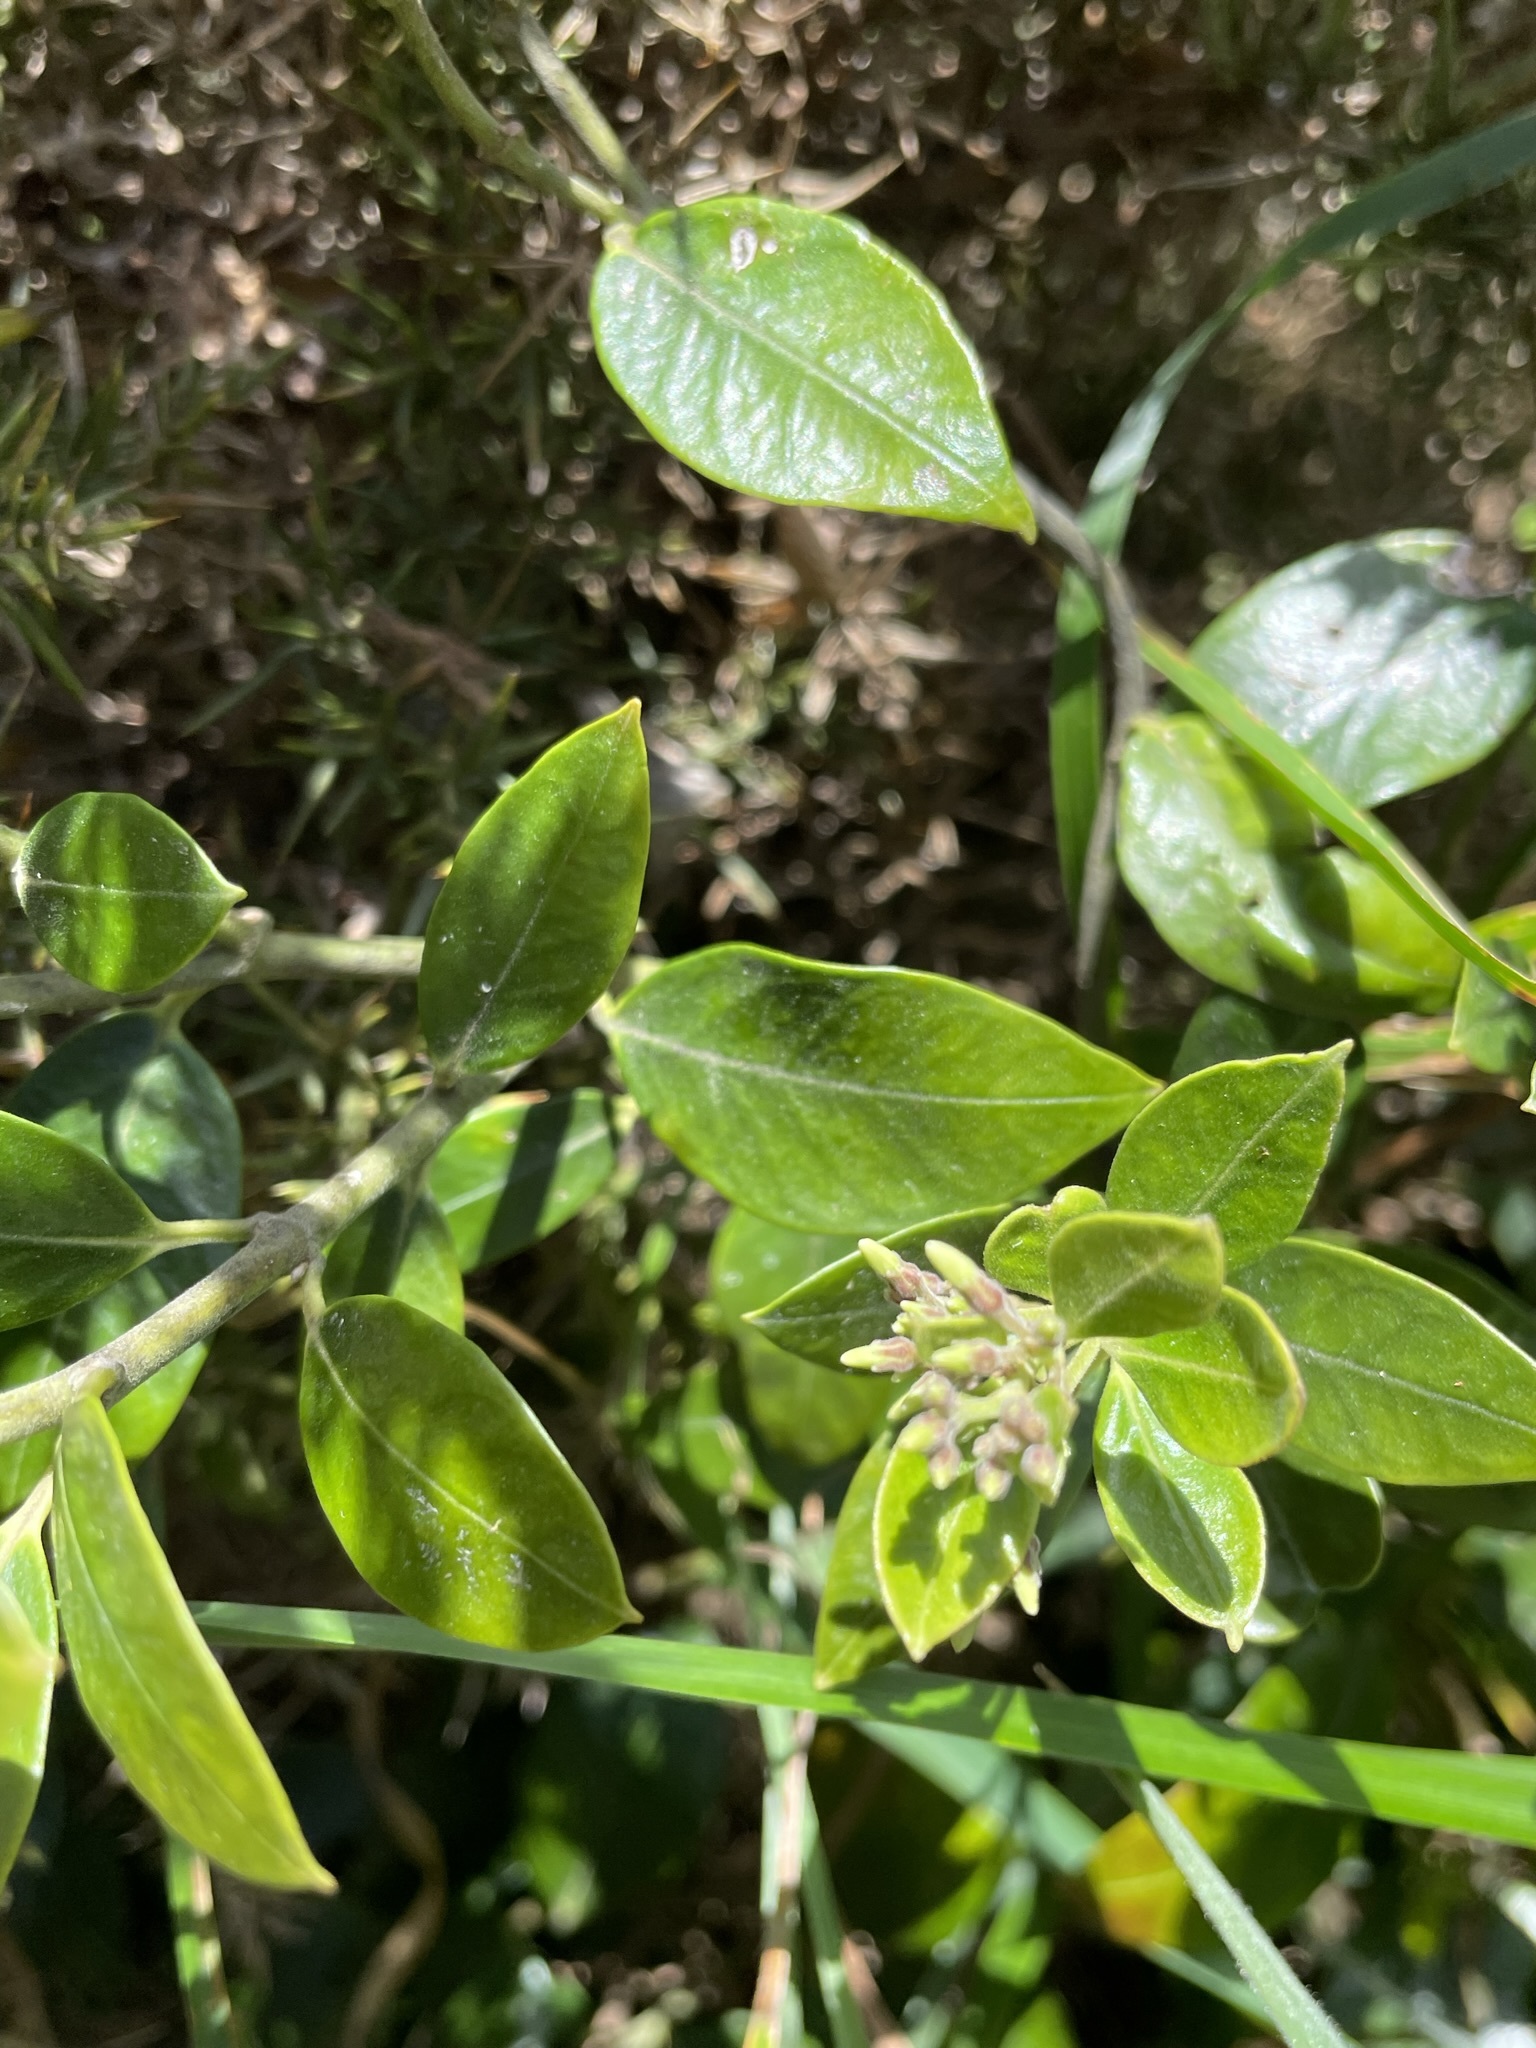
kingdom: Plantae
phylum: Tracheophyta
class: Magnoliopsida
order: Gentianales
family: Apocynaceae
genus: Parsonsia
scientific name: Parsonsia heterophylla
